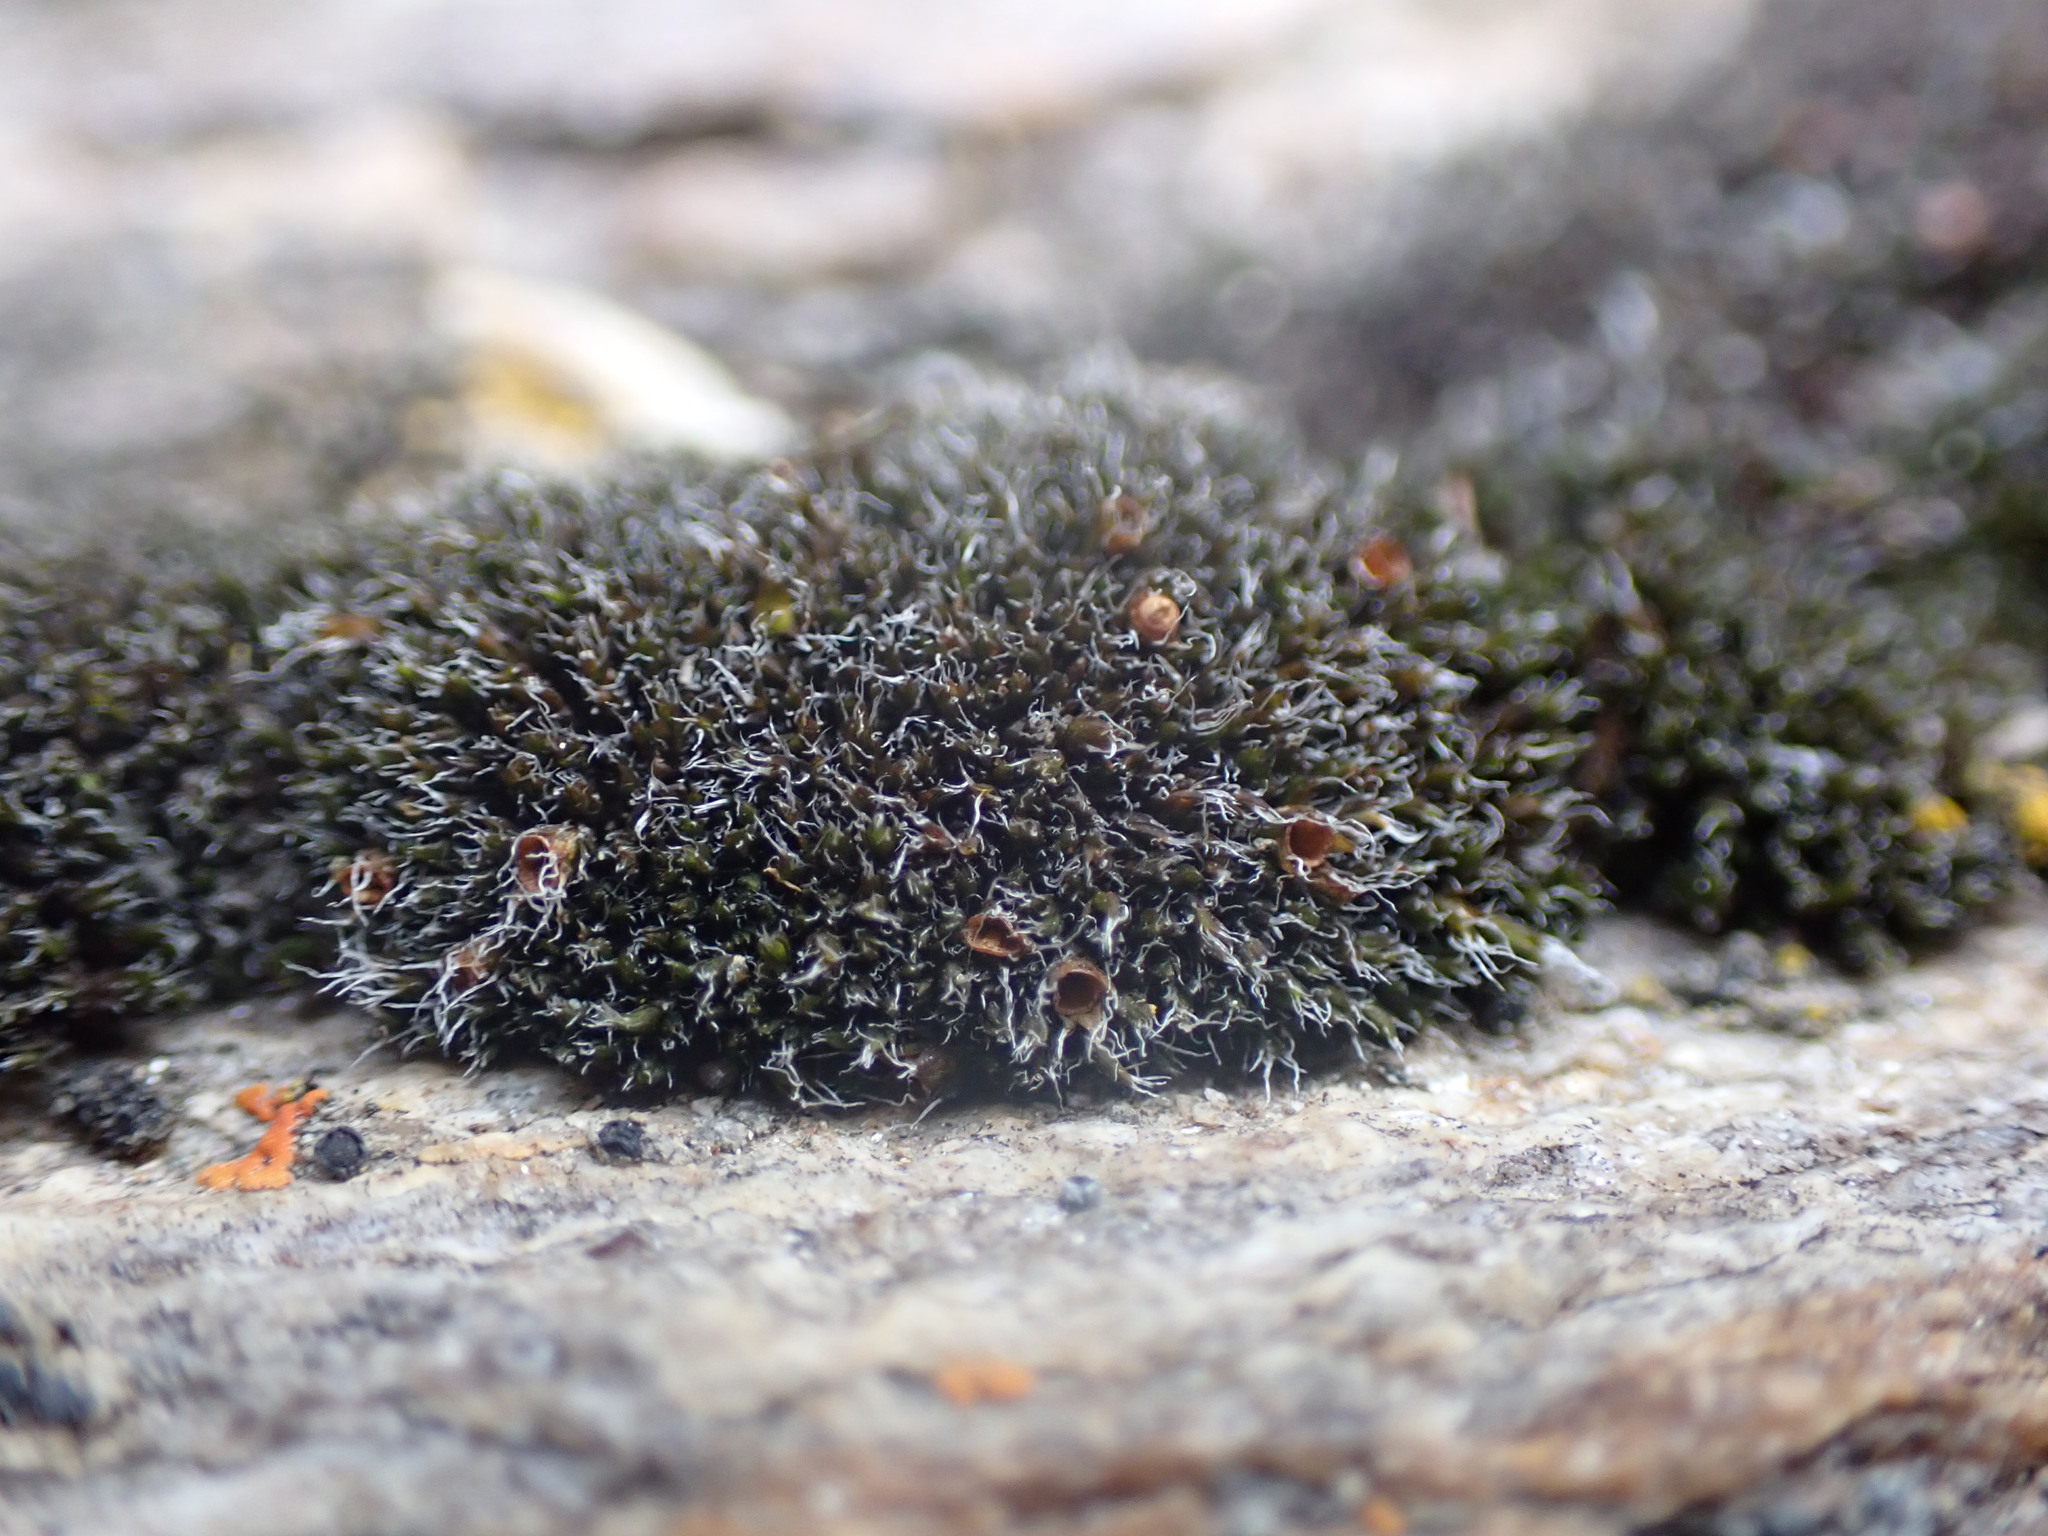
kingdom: Plantae
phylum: Bryophyta
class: Bryopsida
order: Grimmiales
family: Grimmiaceae
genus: Grimmia
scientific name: Grimmia anodon
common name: Toothless grimmia
